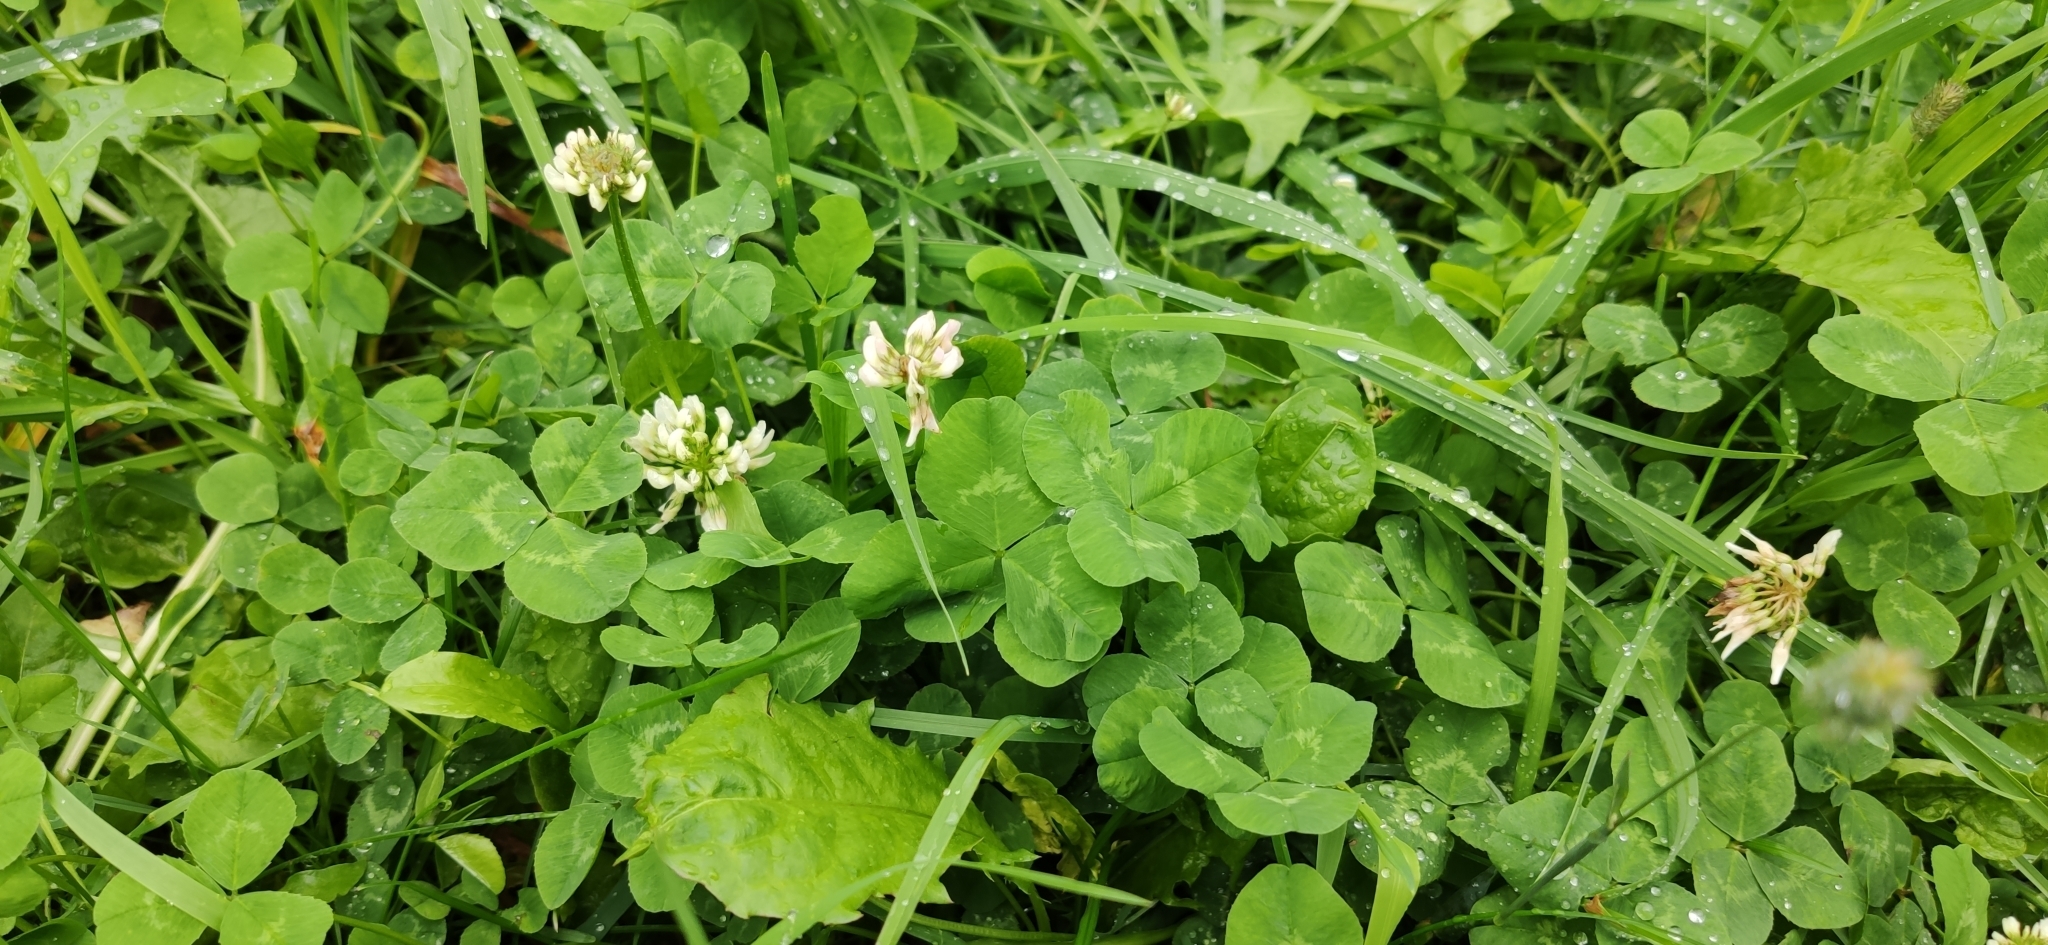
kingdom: Plantae
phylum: Tracheophyta
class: Magnoliopsida
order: Fabales
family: Fabaceae
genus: Trifolium
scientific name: Trifolium repens
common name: White clover
